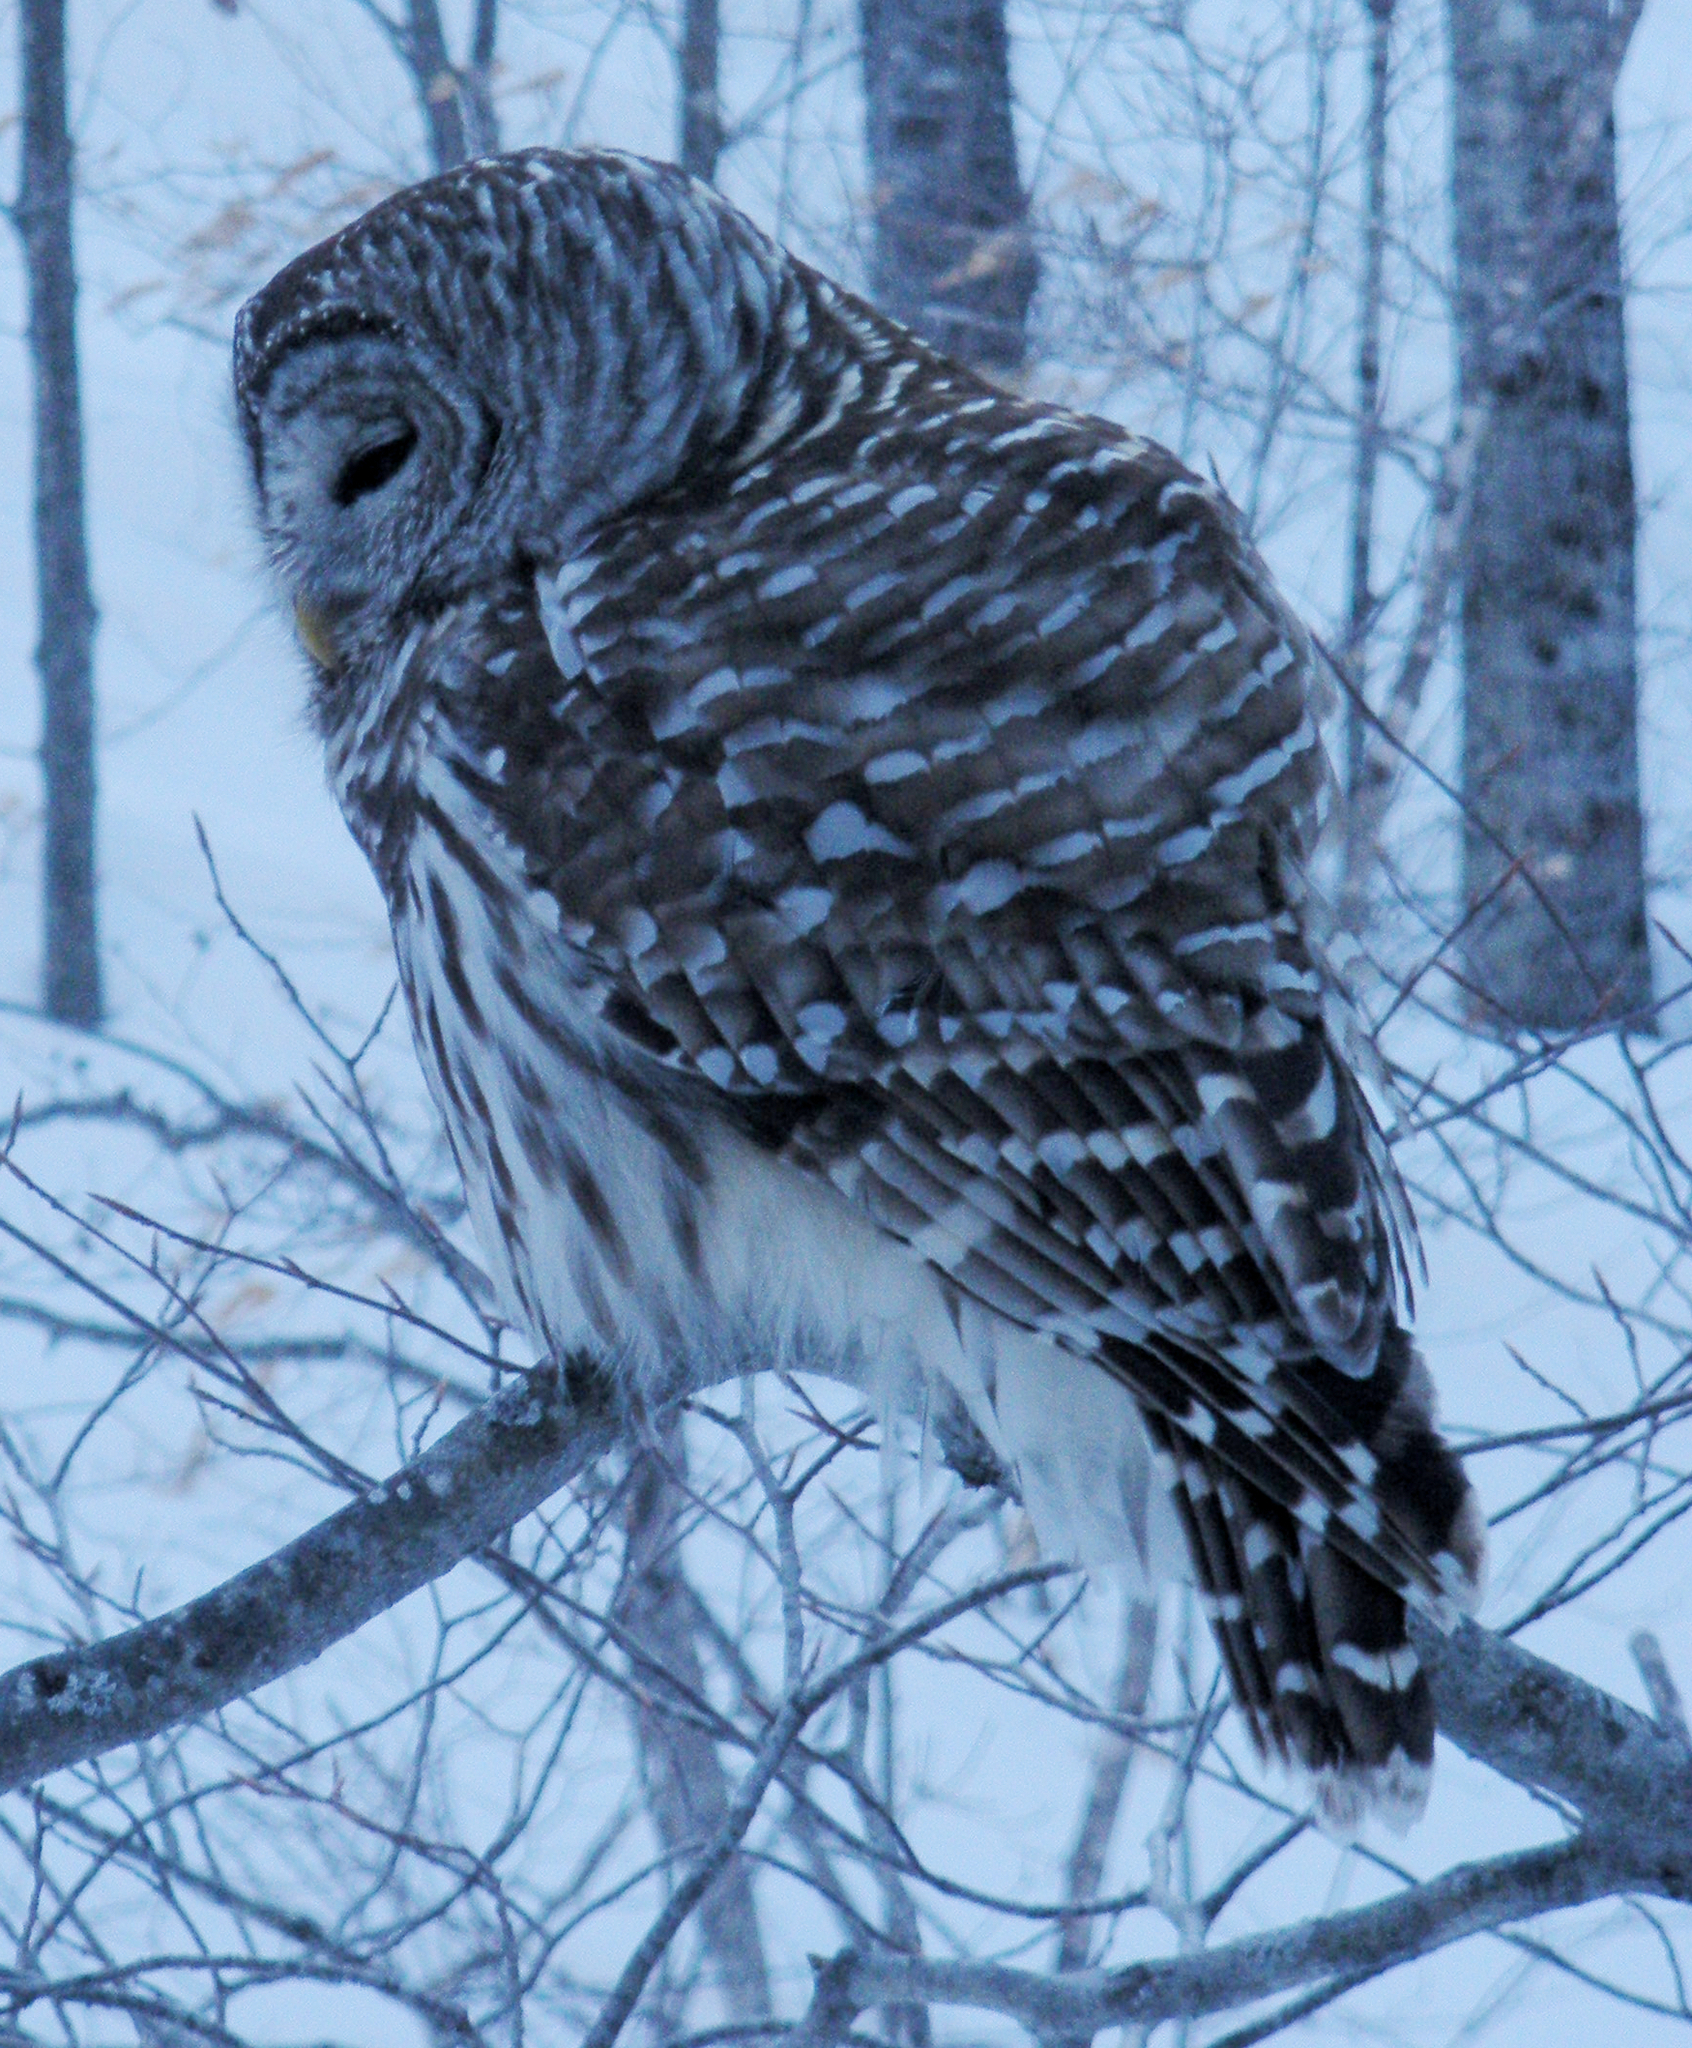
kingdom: Animalia
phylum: Chordata
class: Aves
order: Strigiformes
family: Strigidae
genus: Strix
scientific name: Strix varia
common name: Barred owl
